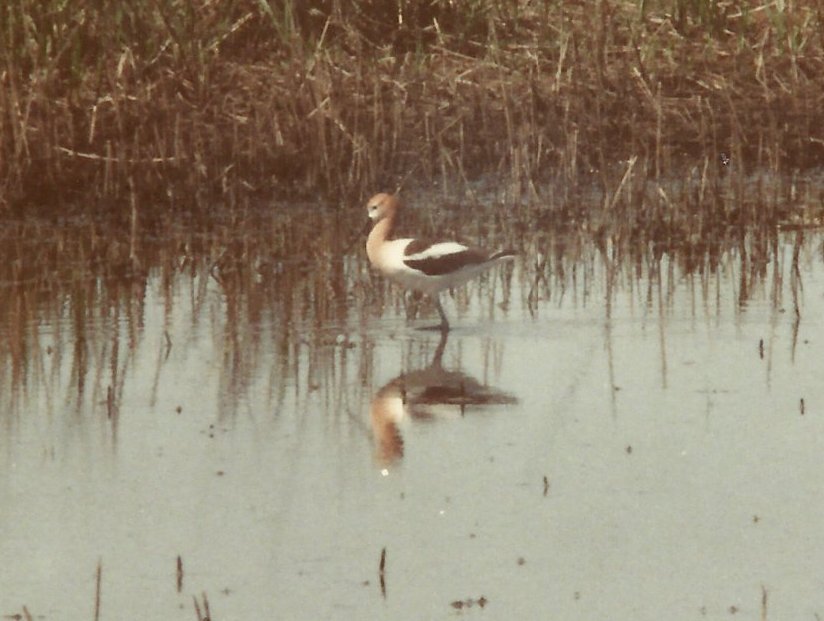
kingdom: Animalia
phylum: Chordata
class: Aves
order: Charadriiformes
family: Recurvirostridae
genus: Recurvirostra
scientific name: Recurvirostra americana
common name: American avocet
